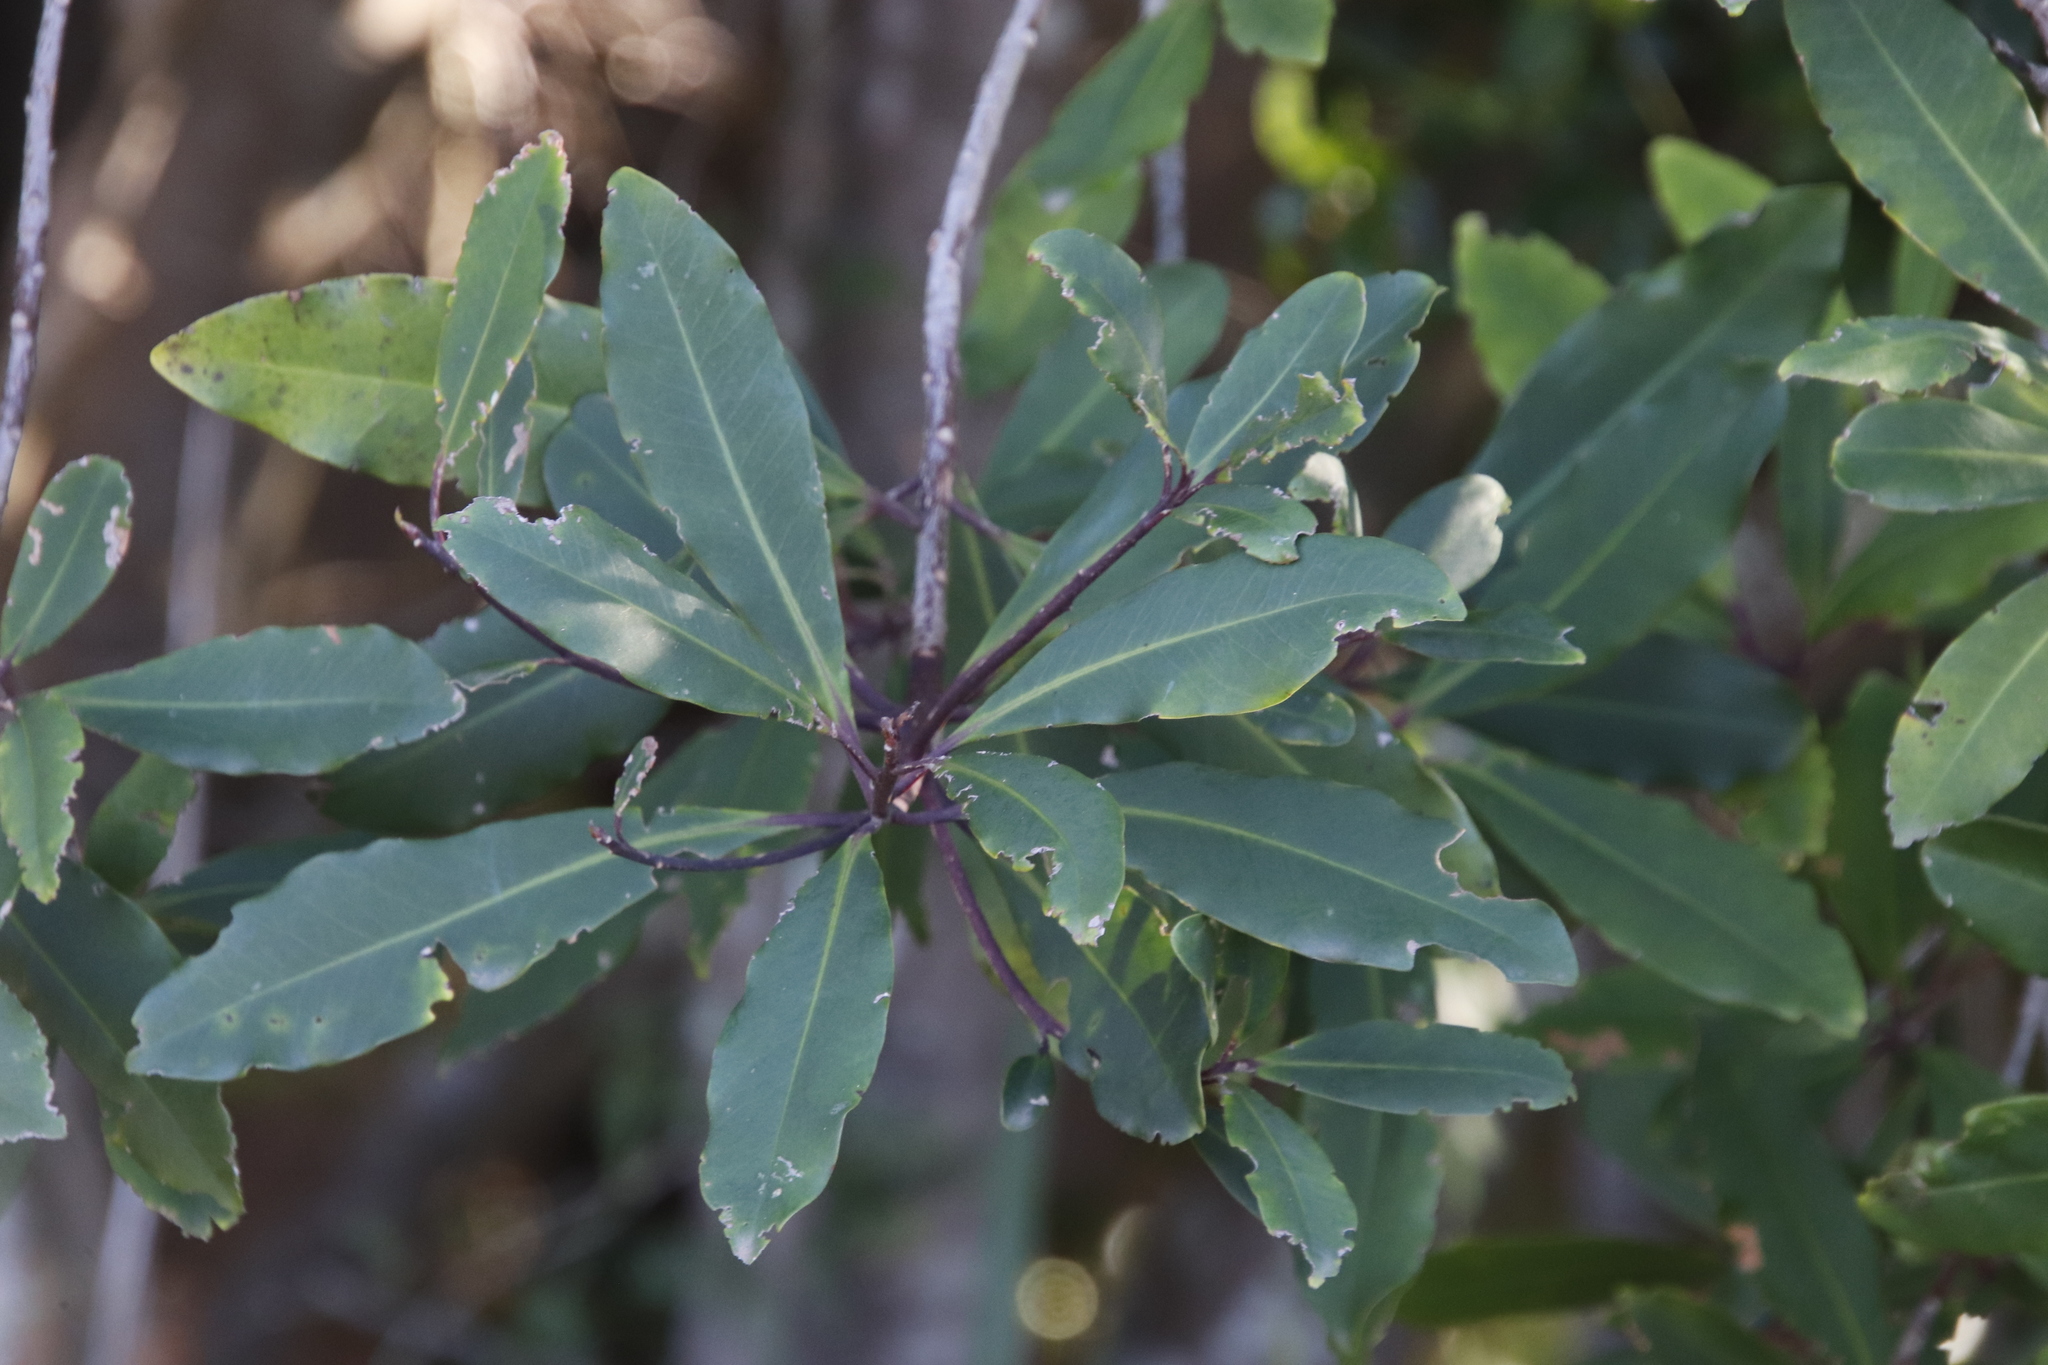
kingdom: Plantae
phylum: Tracheophyta
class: Magnoliopsida
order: Ericales
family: Primulaceae
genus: Myrsine
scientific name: Myrsine melanophloeos
